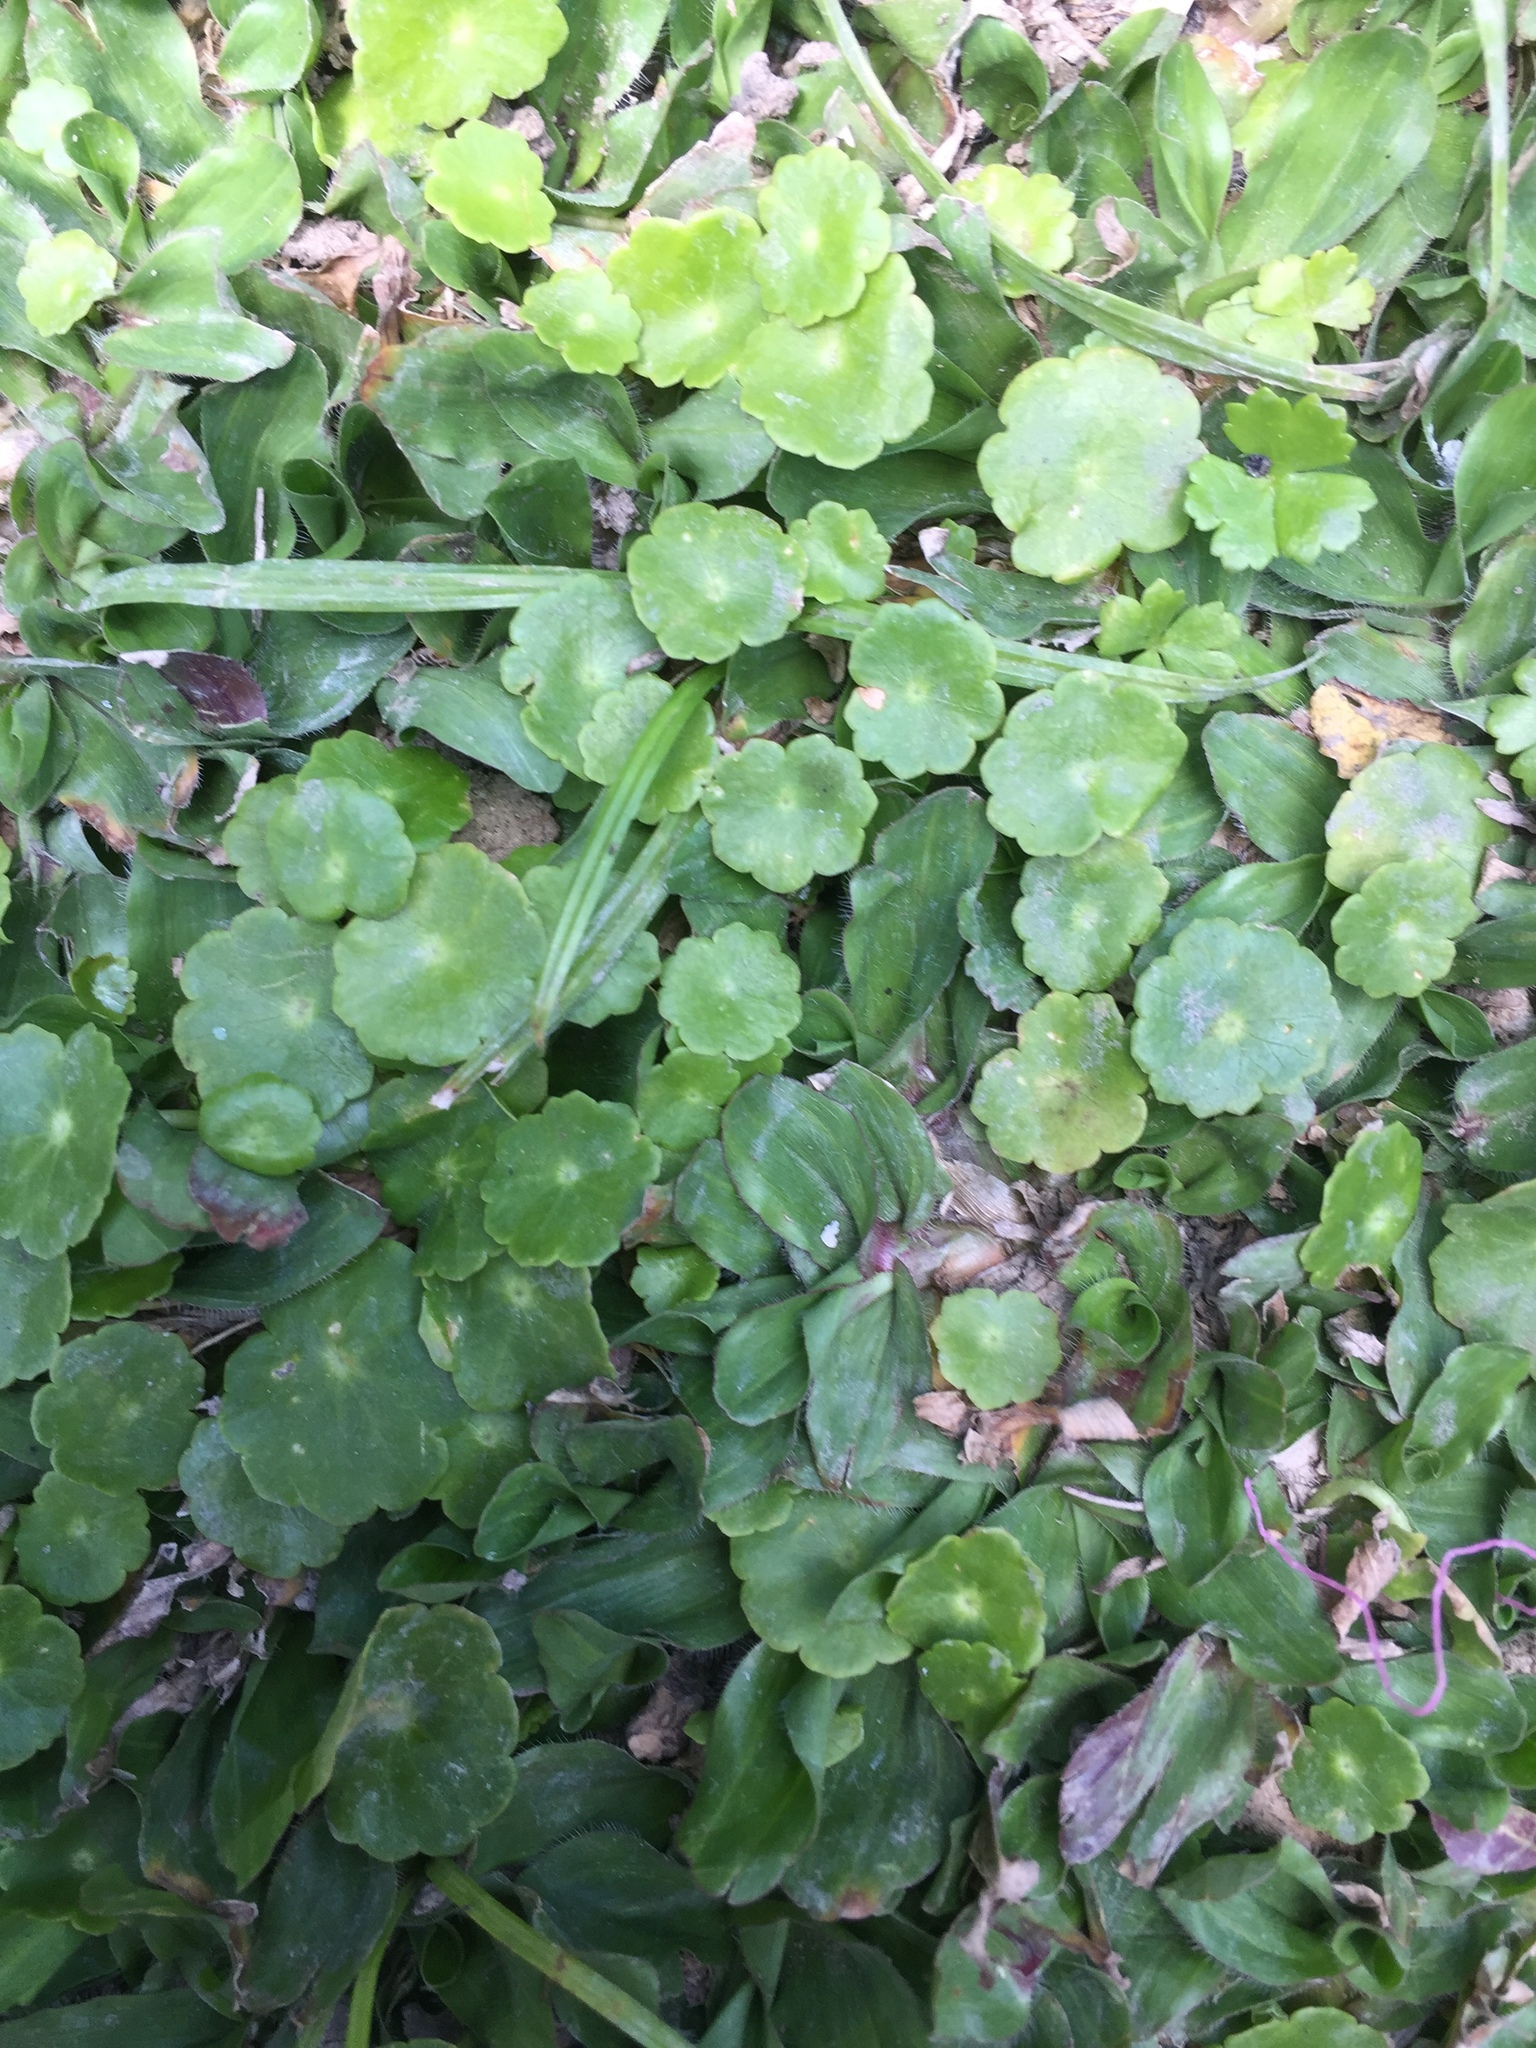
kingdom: Plantae
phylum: Tracheophyta
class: Magnoliopsida
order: Apiales
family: Araliaceae
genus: Hydrocotyle
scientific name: Hydrocotyle verticillata
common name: Whorled marshpennywort
